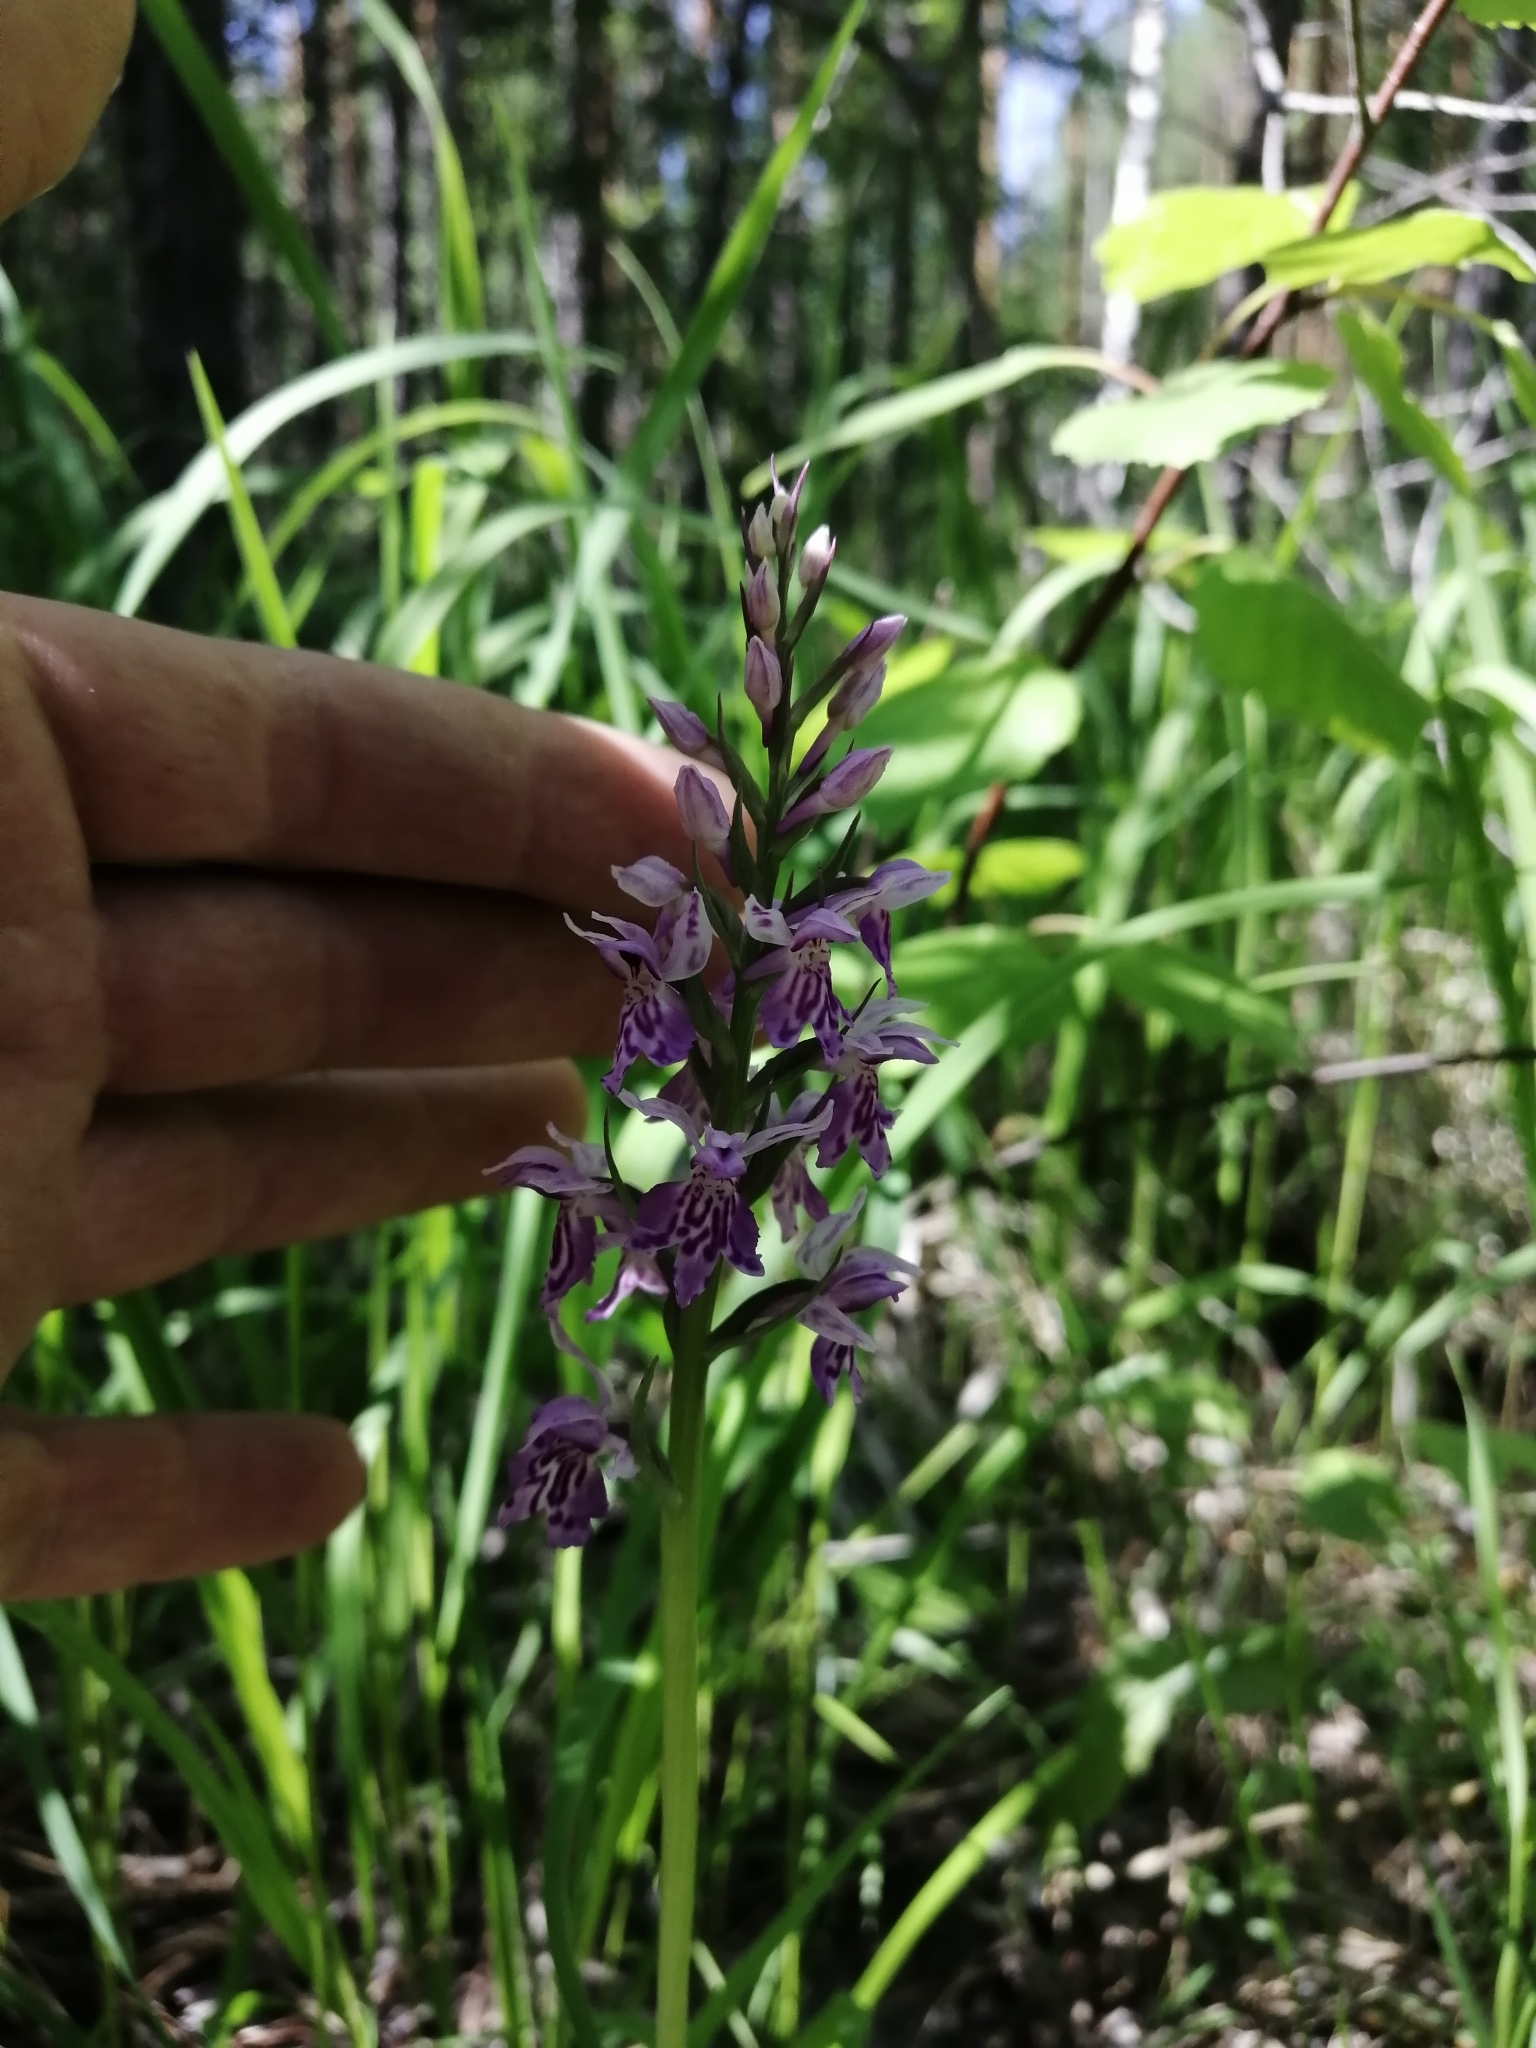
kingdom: Plantae
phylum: Tracheophyta
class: Liliopsida
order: Asparagales
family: Orchidaceae
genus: Dactylorhiza
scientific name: Dactylorhiza maculata
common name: Heath spotted-orchid
